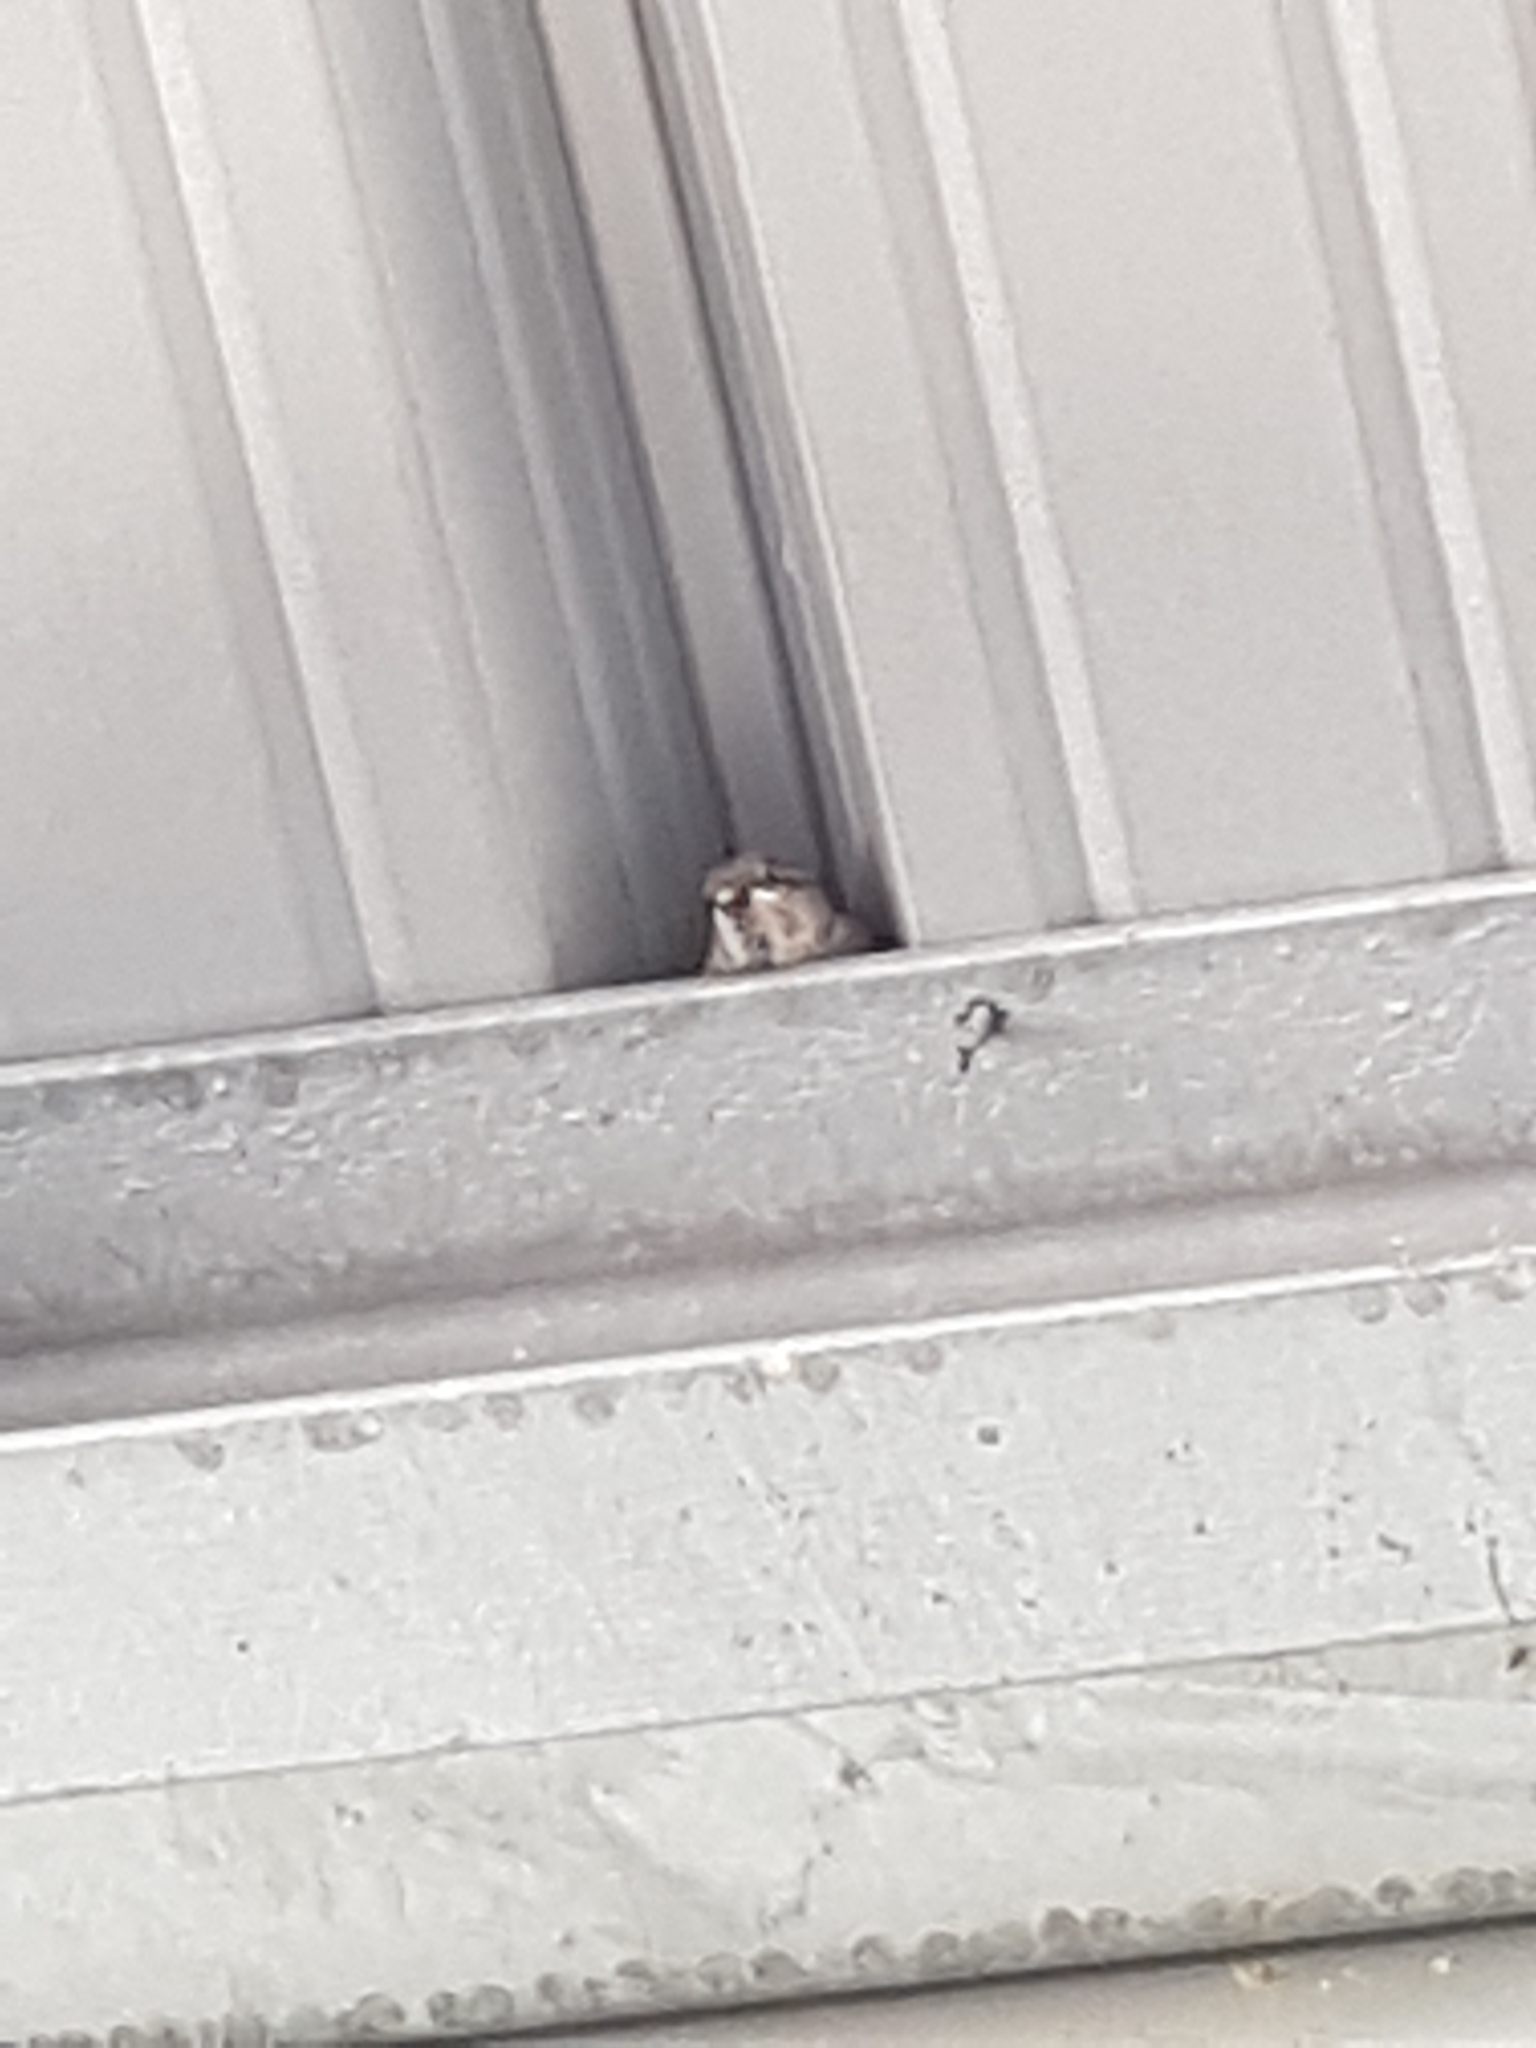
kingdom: Animalia
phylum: Chordata
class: Aves
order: Passeriformes
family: Passeridae
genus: Passer
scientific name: Passer domesticus
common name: House sparrow
